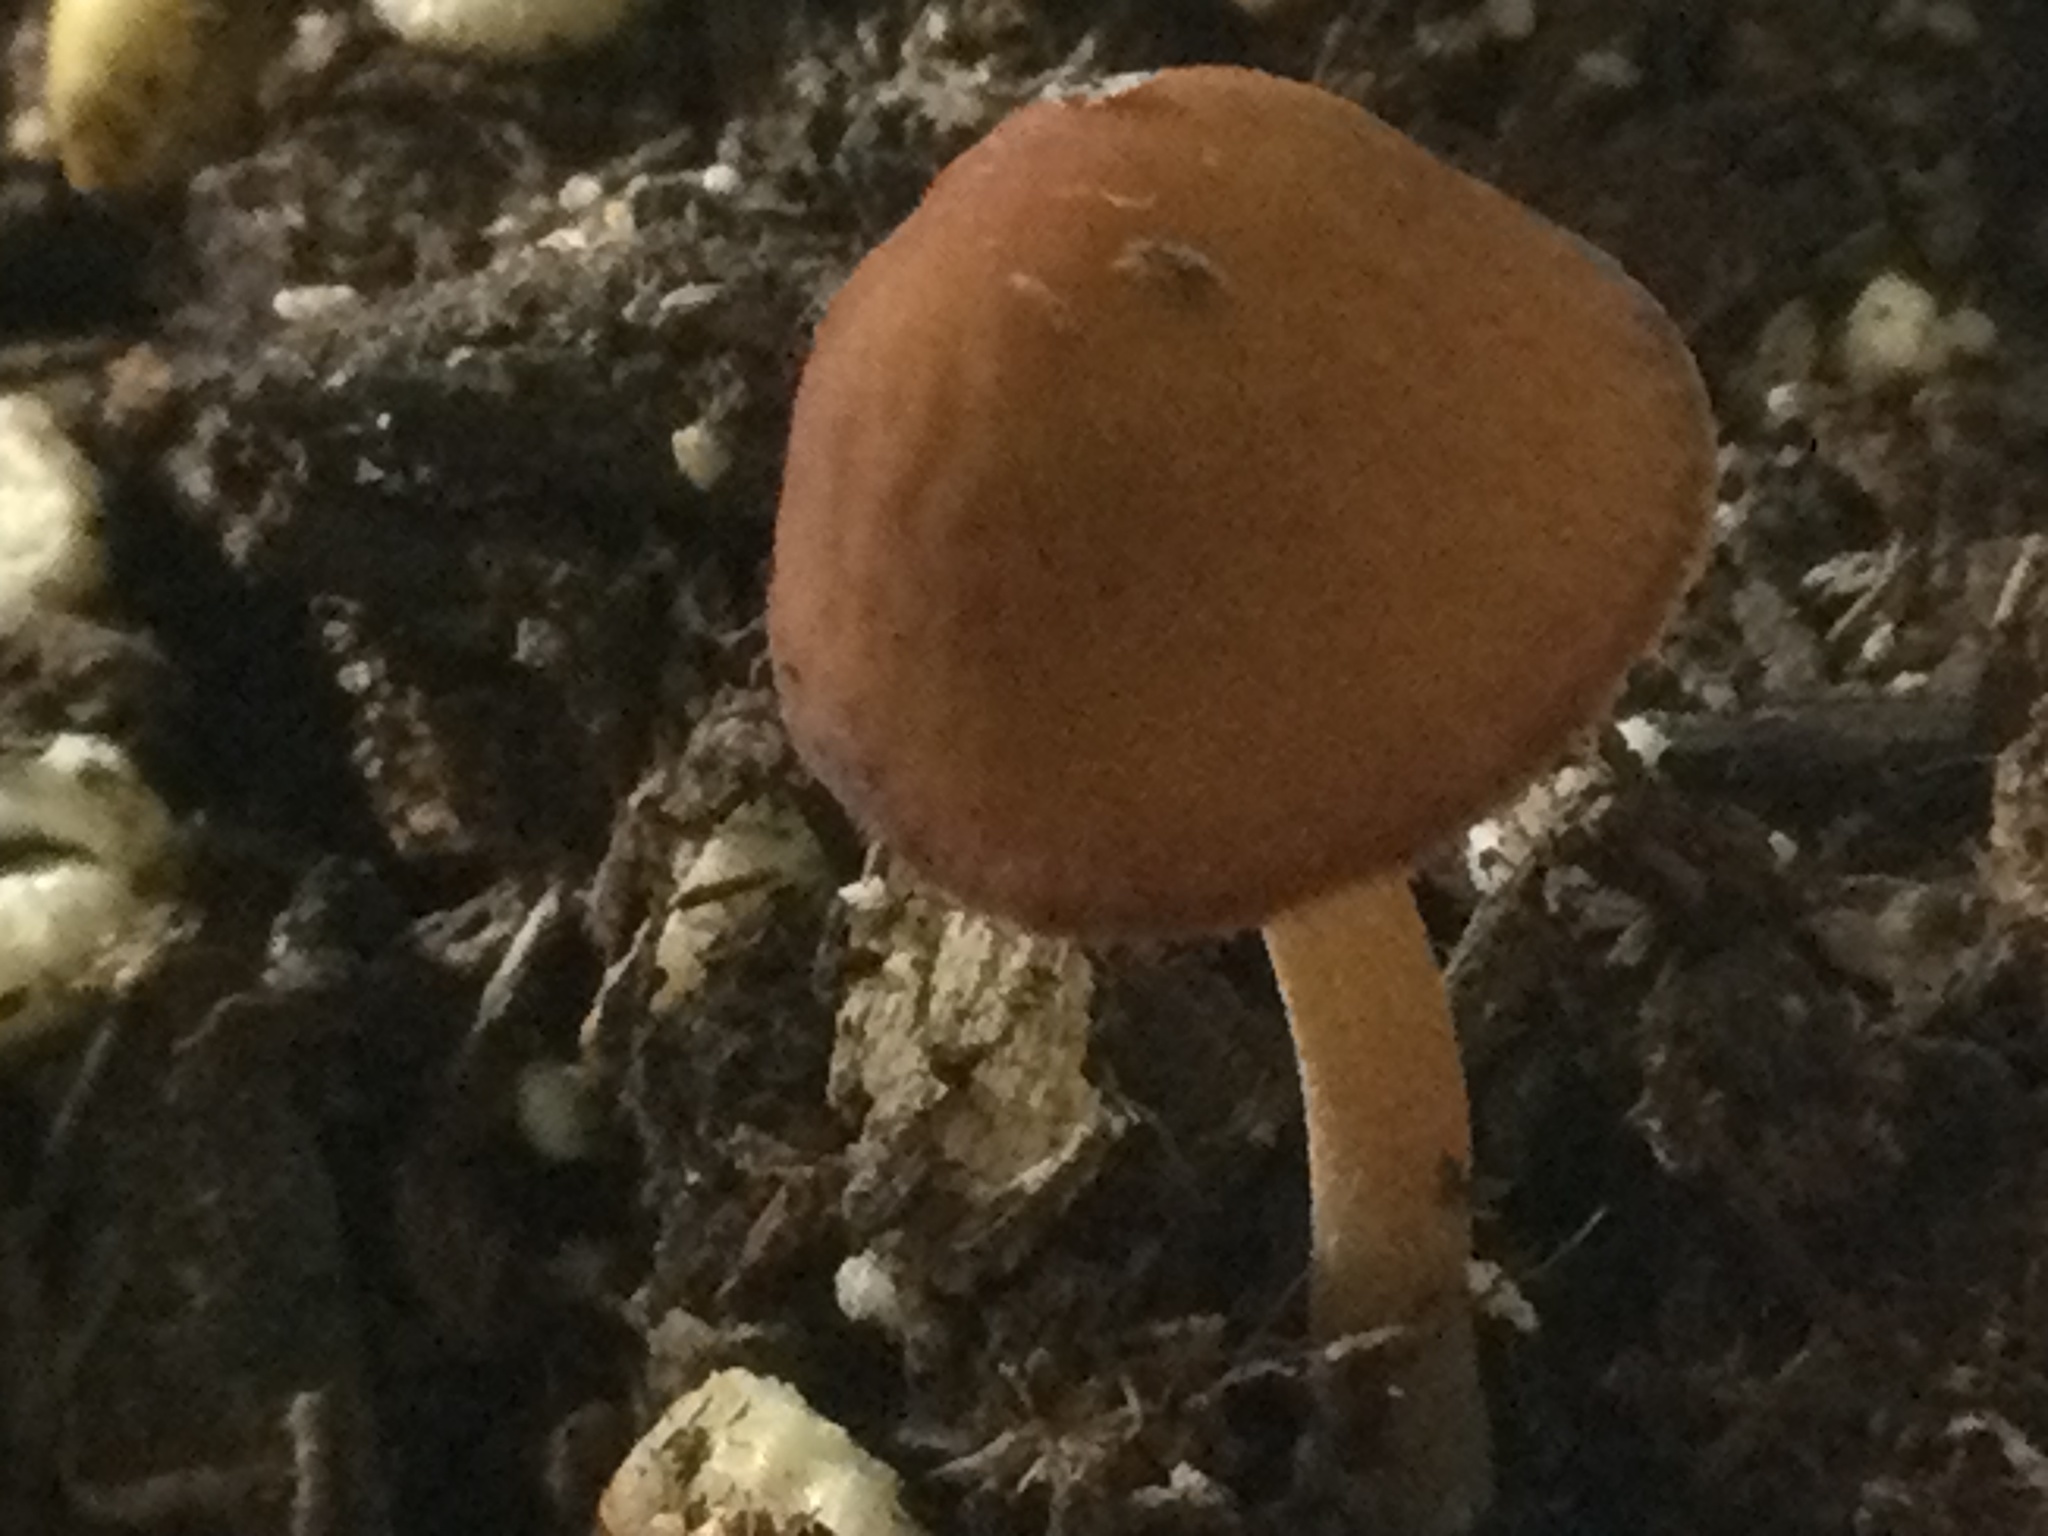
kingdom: Fungi
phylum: Basidiomycota
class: Agaricomycetes
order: Agaricales
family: Tubariaceae
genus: Tubaria
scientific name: Tubaria furfuracea
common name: Scurfy twiglet
